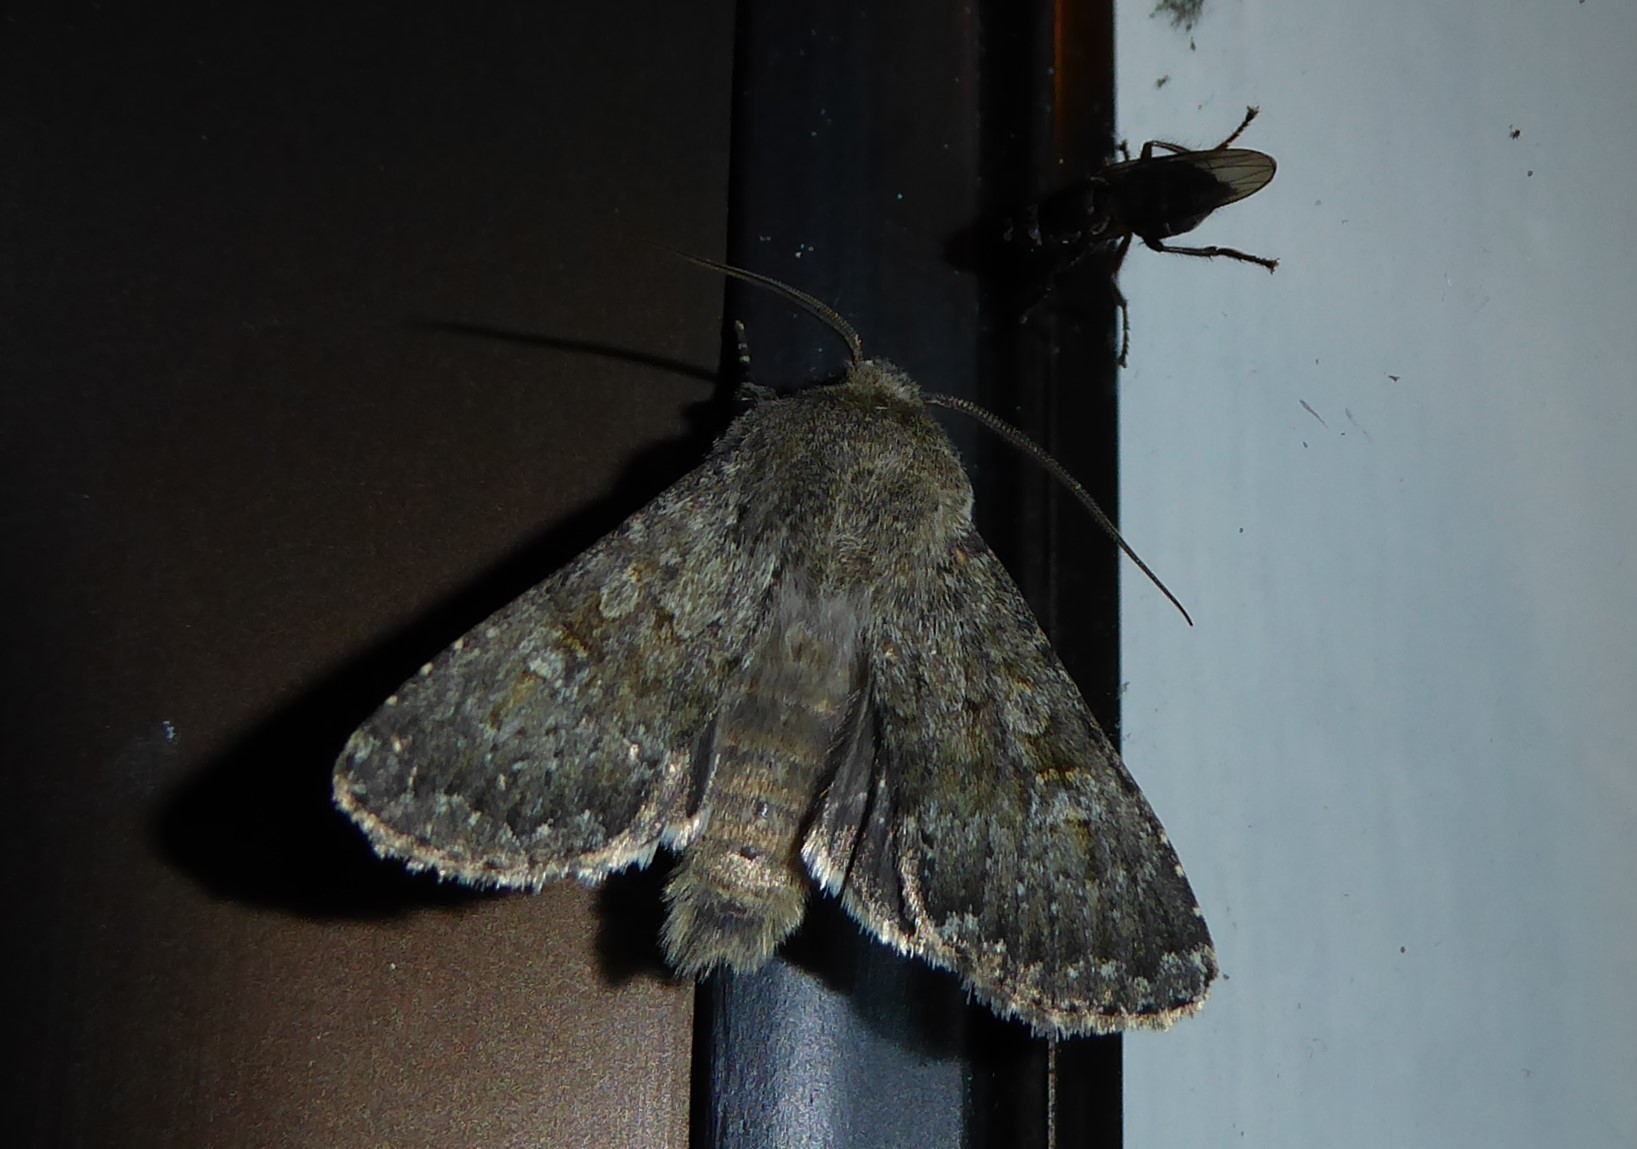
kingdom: Animalia
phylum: Arthropoda
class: Insecta
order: Lepidoptera
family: Noctuidae
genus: Ichneutica
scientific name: Ichneutica moderata
